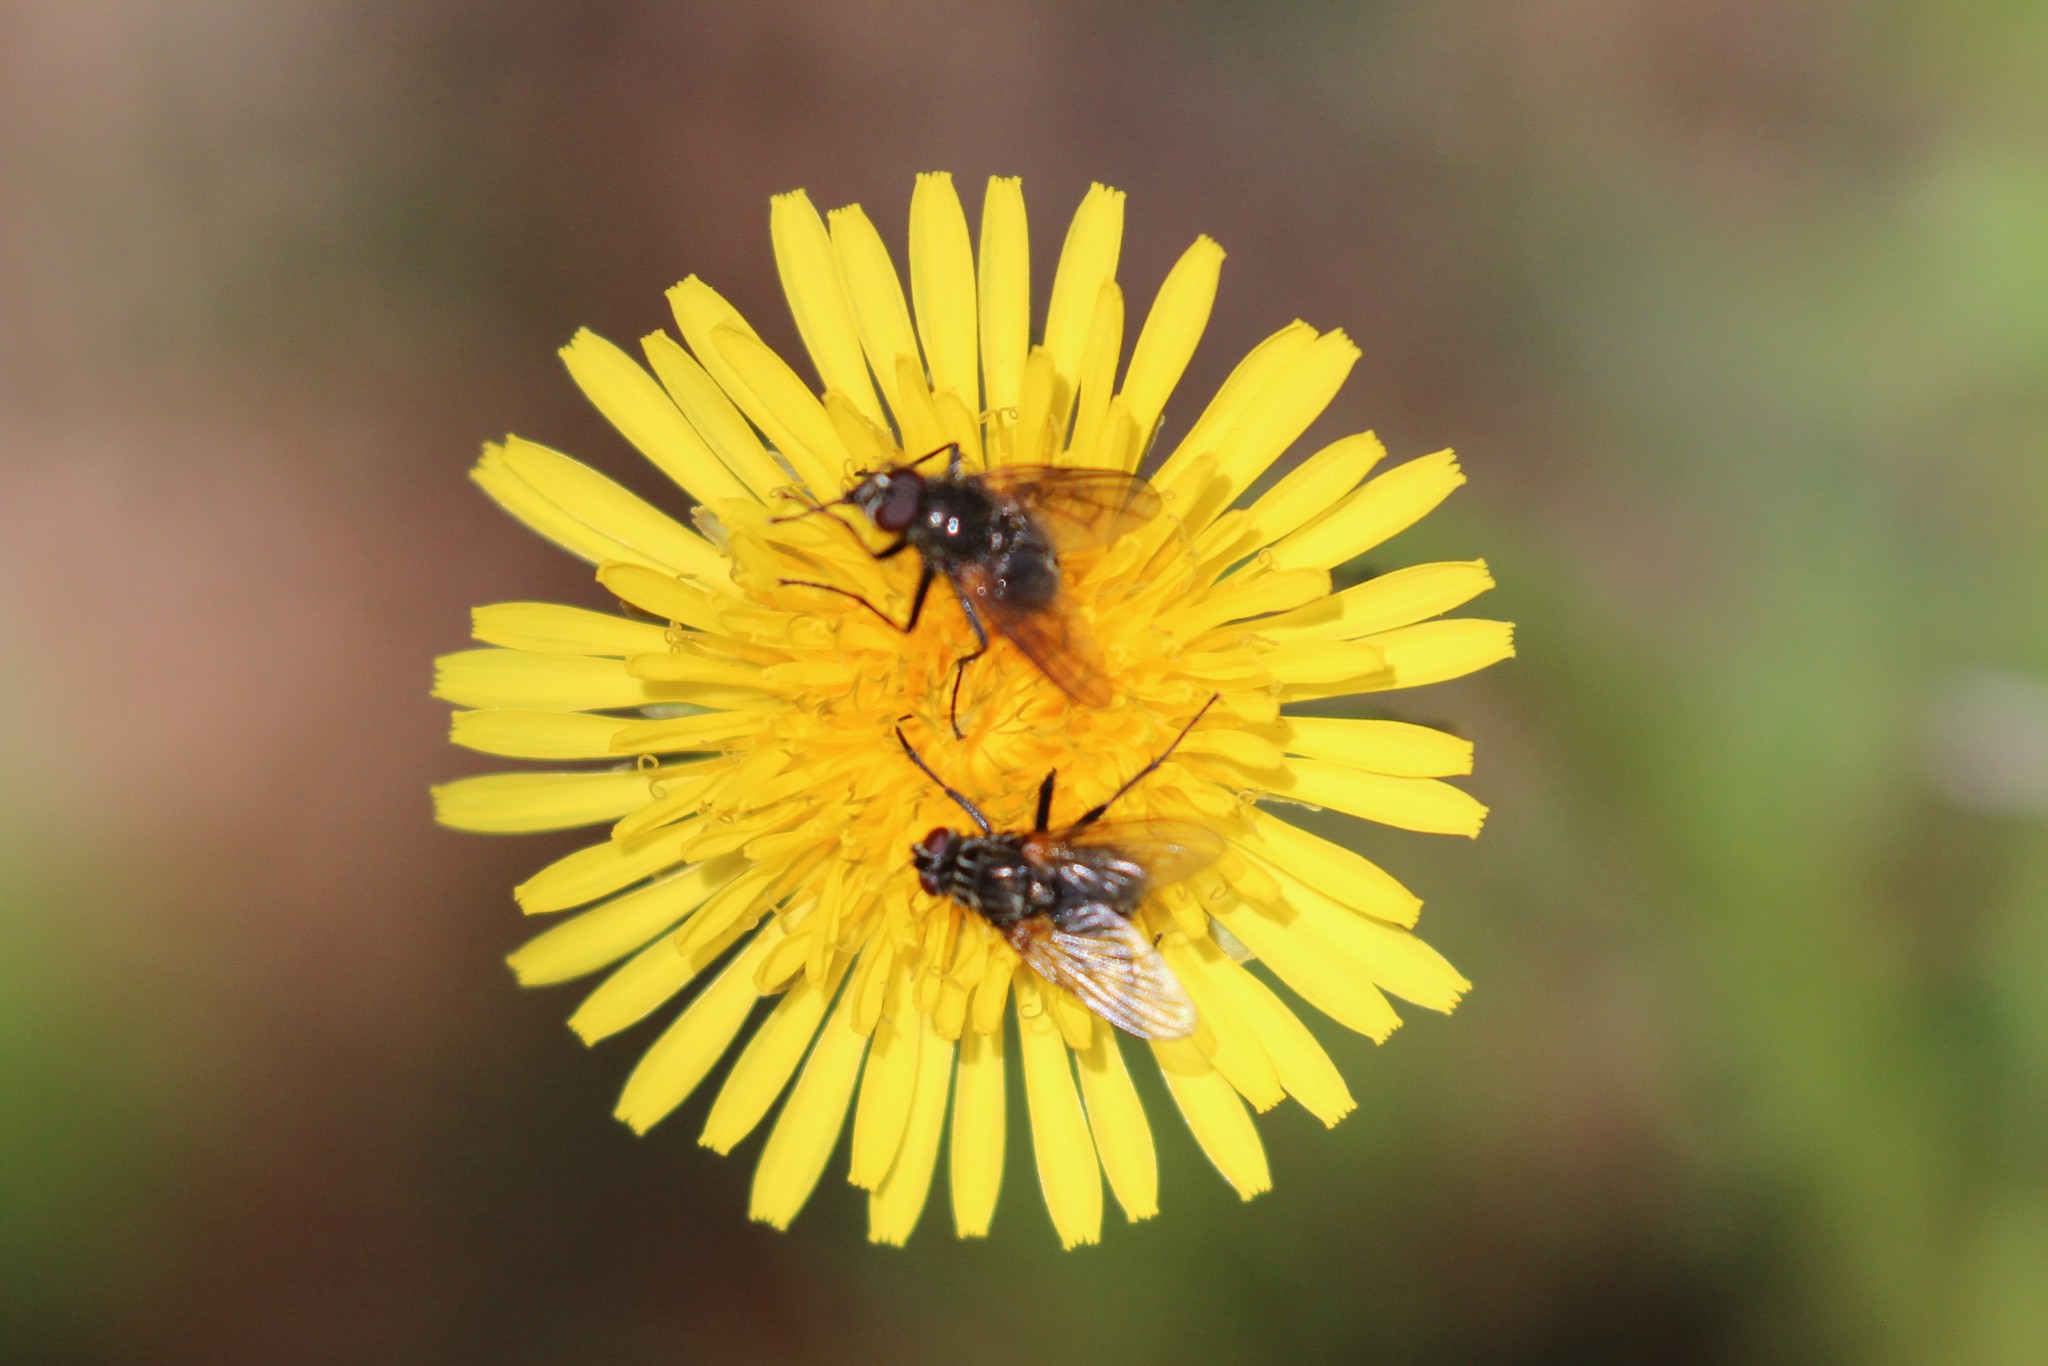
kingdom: Plantae
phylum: Tracheophyta
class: Magnoliopsida
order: Asterales
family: Asteraceae
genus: Taraxacum
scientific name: Taraxacum officinale
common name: Common dandelion
